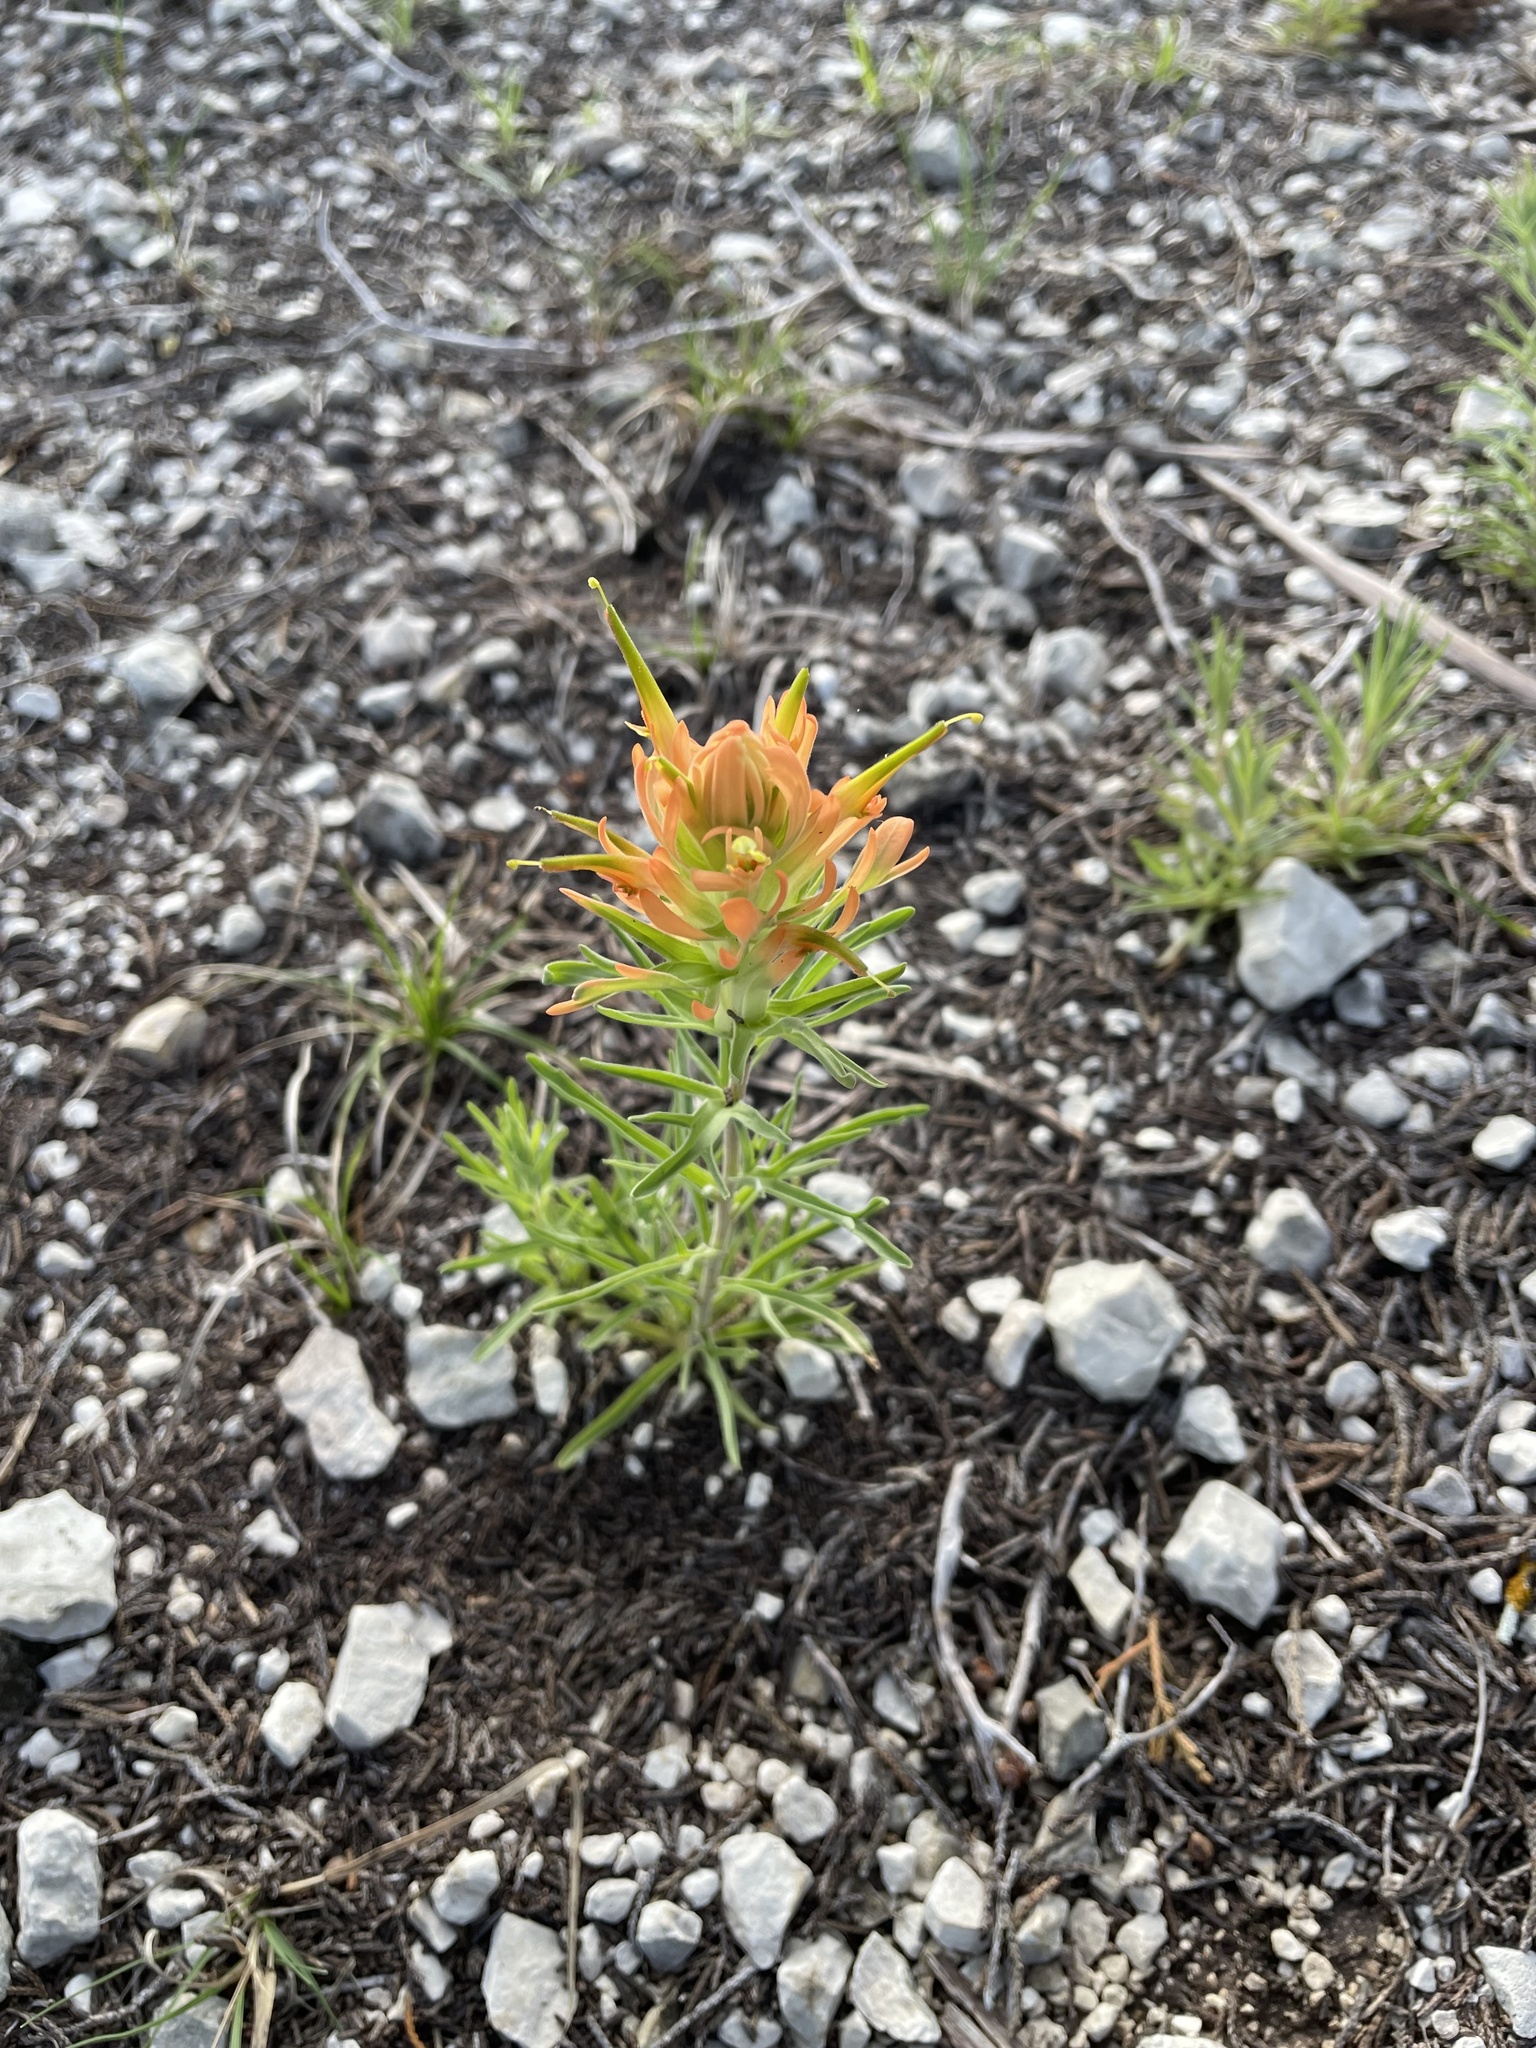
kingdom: Plantae
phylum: Tracheophyta
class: Magnoliopsida
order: Lamiales
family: Orobanchaceae
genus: Castilleja
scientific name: Castilleja lindheimeri
